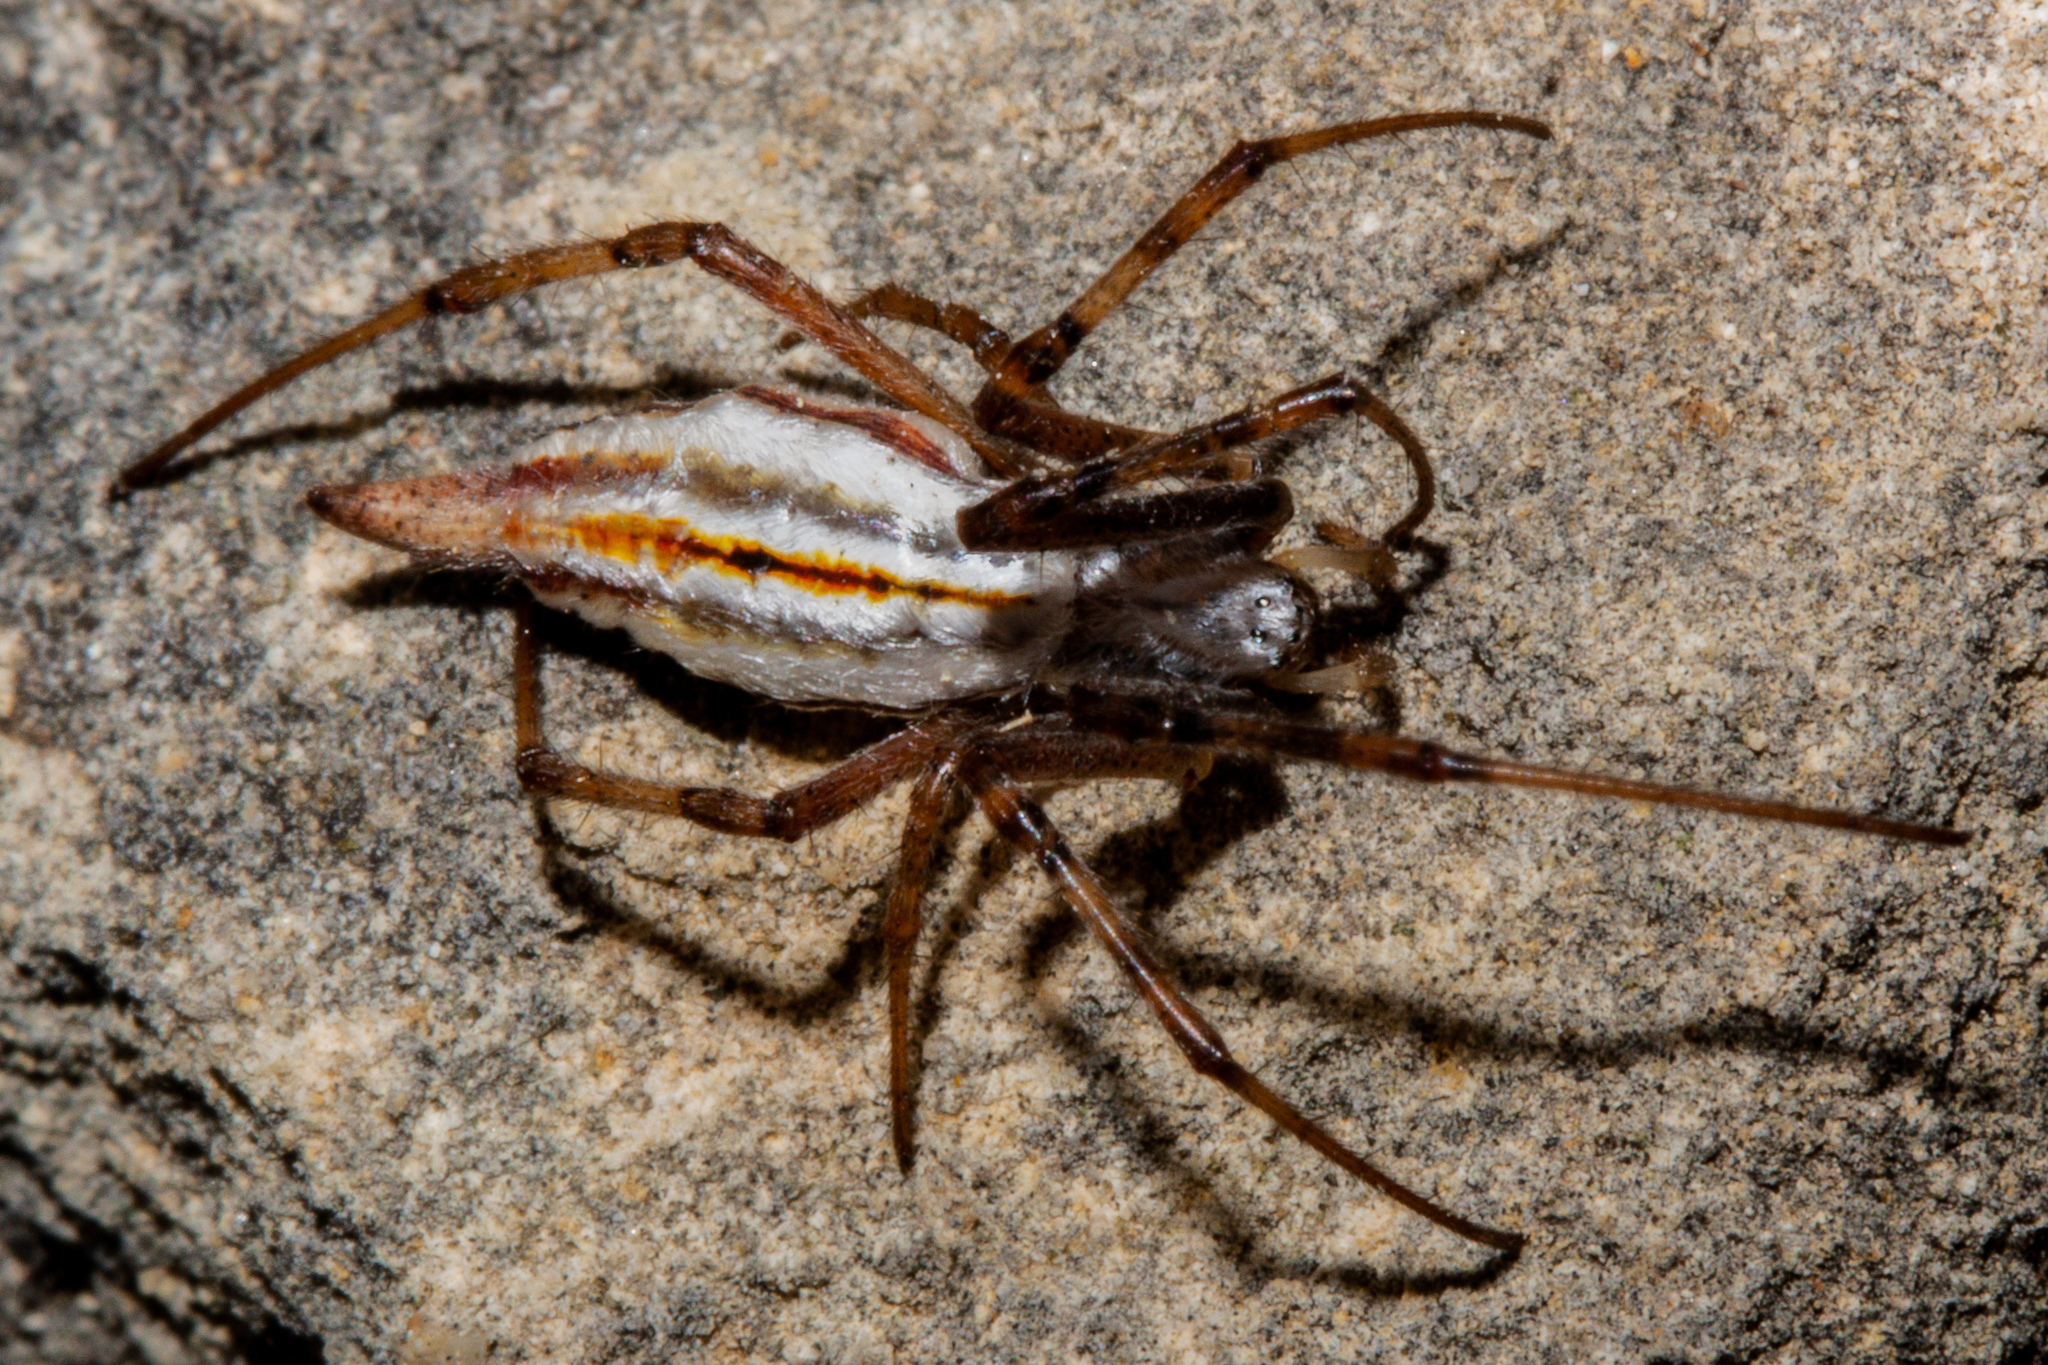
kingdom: Animalia
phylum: Arthropoda
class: Arachnida
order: Araneae
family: Araneidae
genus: Argiope
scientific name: Argiope protensa
